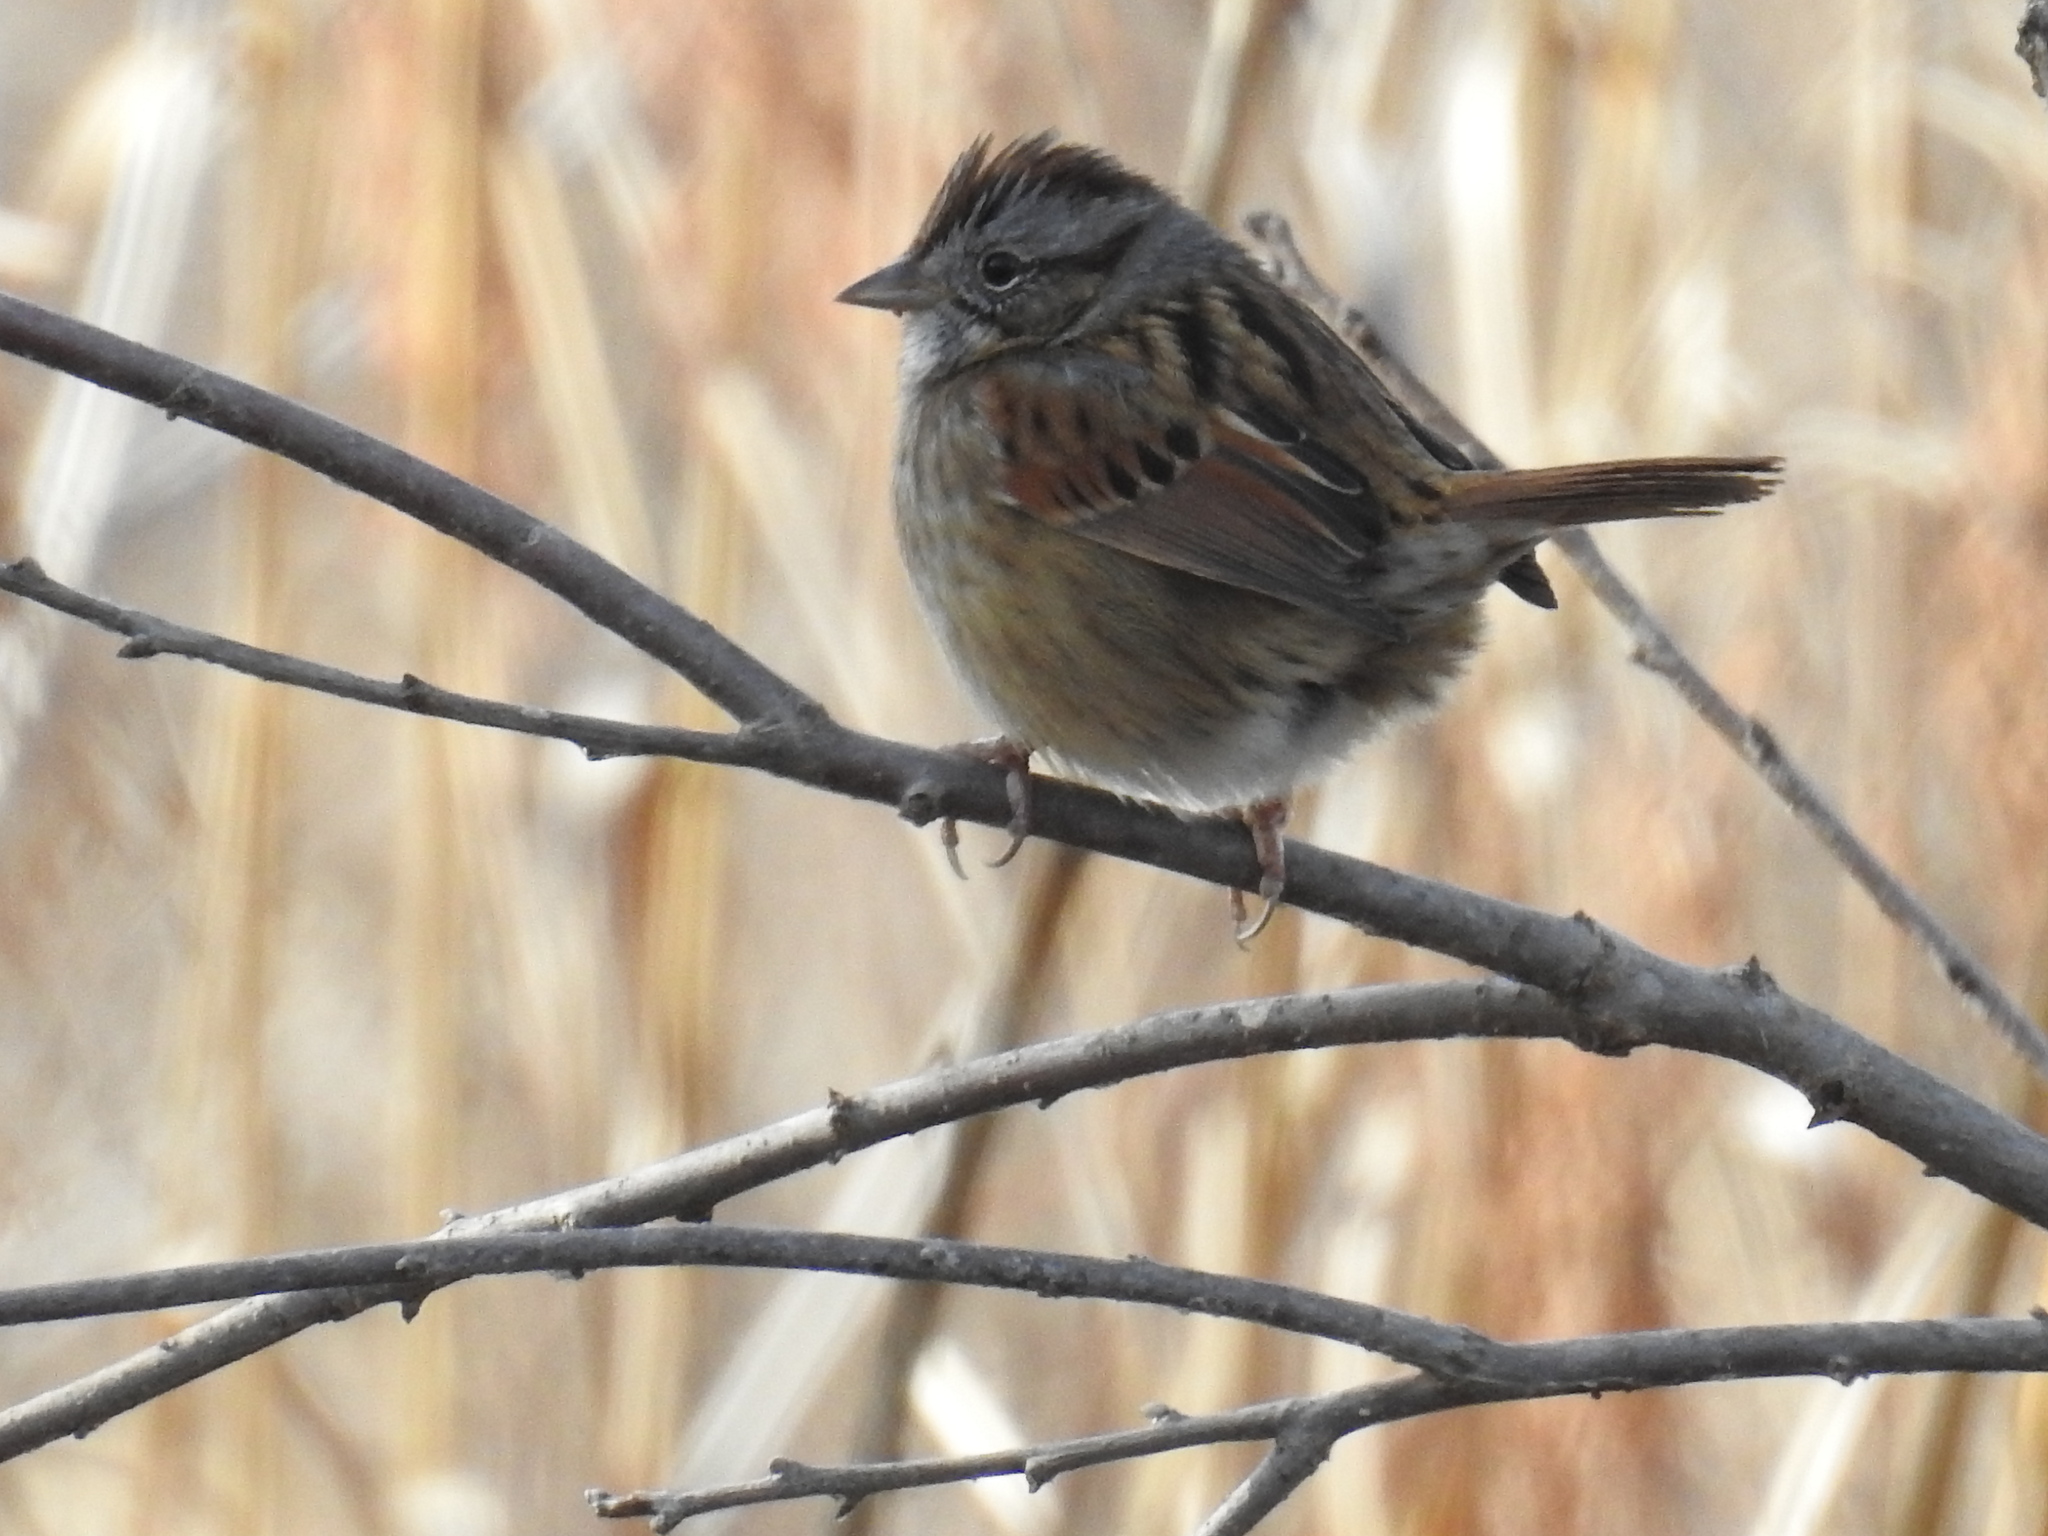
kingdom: Animalia
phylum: Chordata
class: Aves
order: Passeriformes
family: Passerellidae
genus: Melospiza
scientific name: Melospiza georgiana
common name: Swamp sparrow
